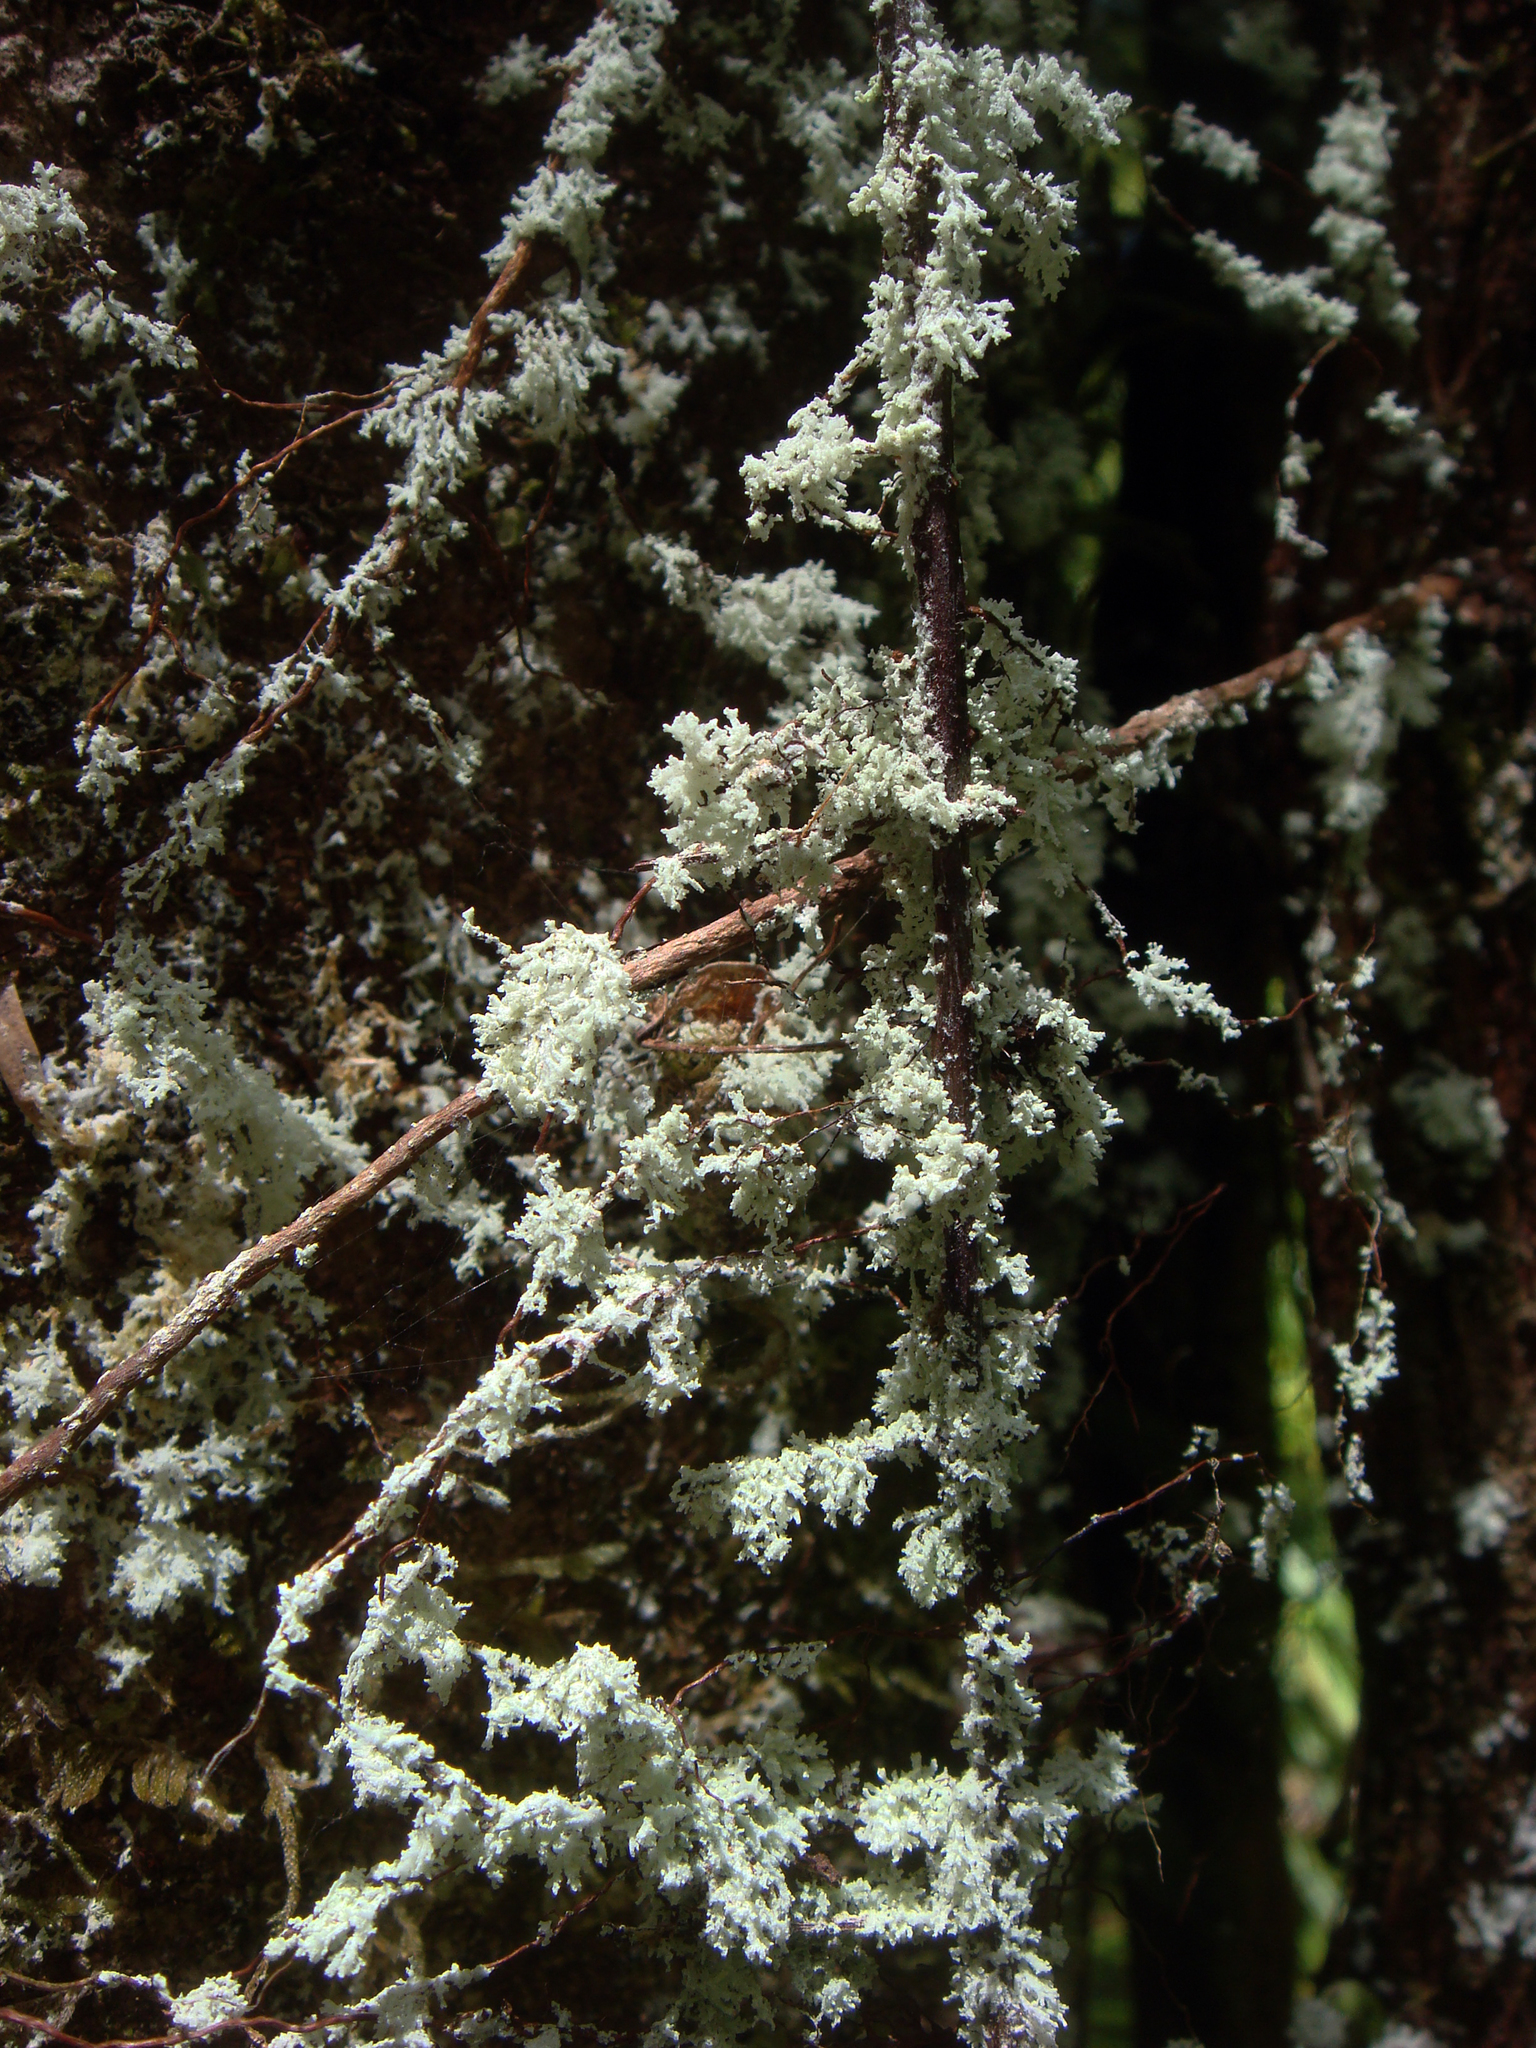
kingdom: Fungi
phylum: Ascomycota
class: Lecanoromycetes
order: Lecanorales
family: Byssolomataceae
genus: Roccellinastrum
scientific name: Roccellinastrum neglectum
